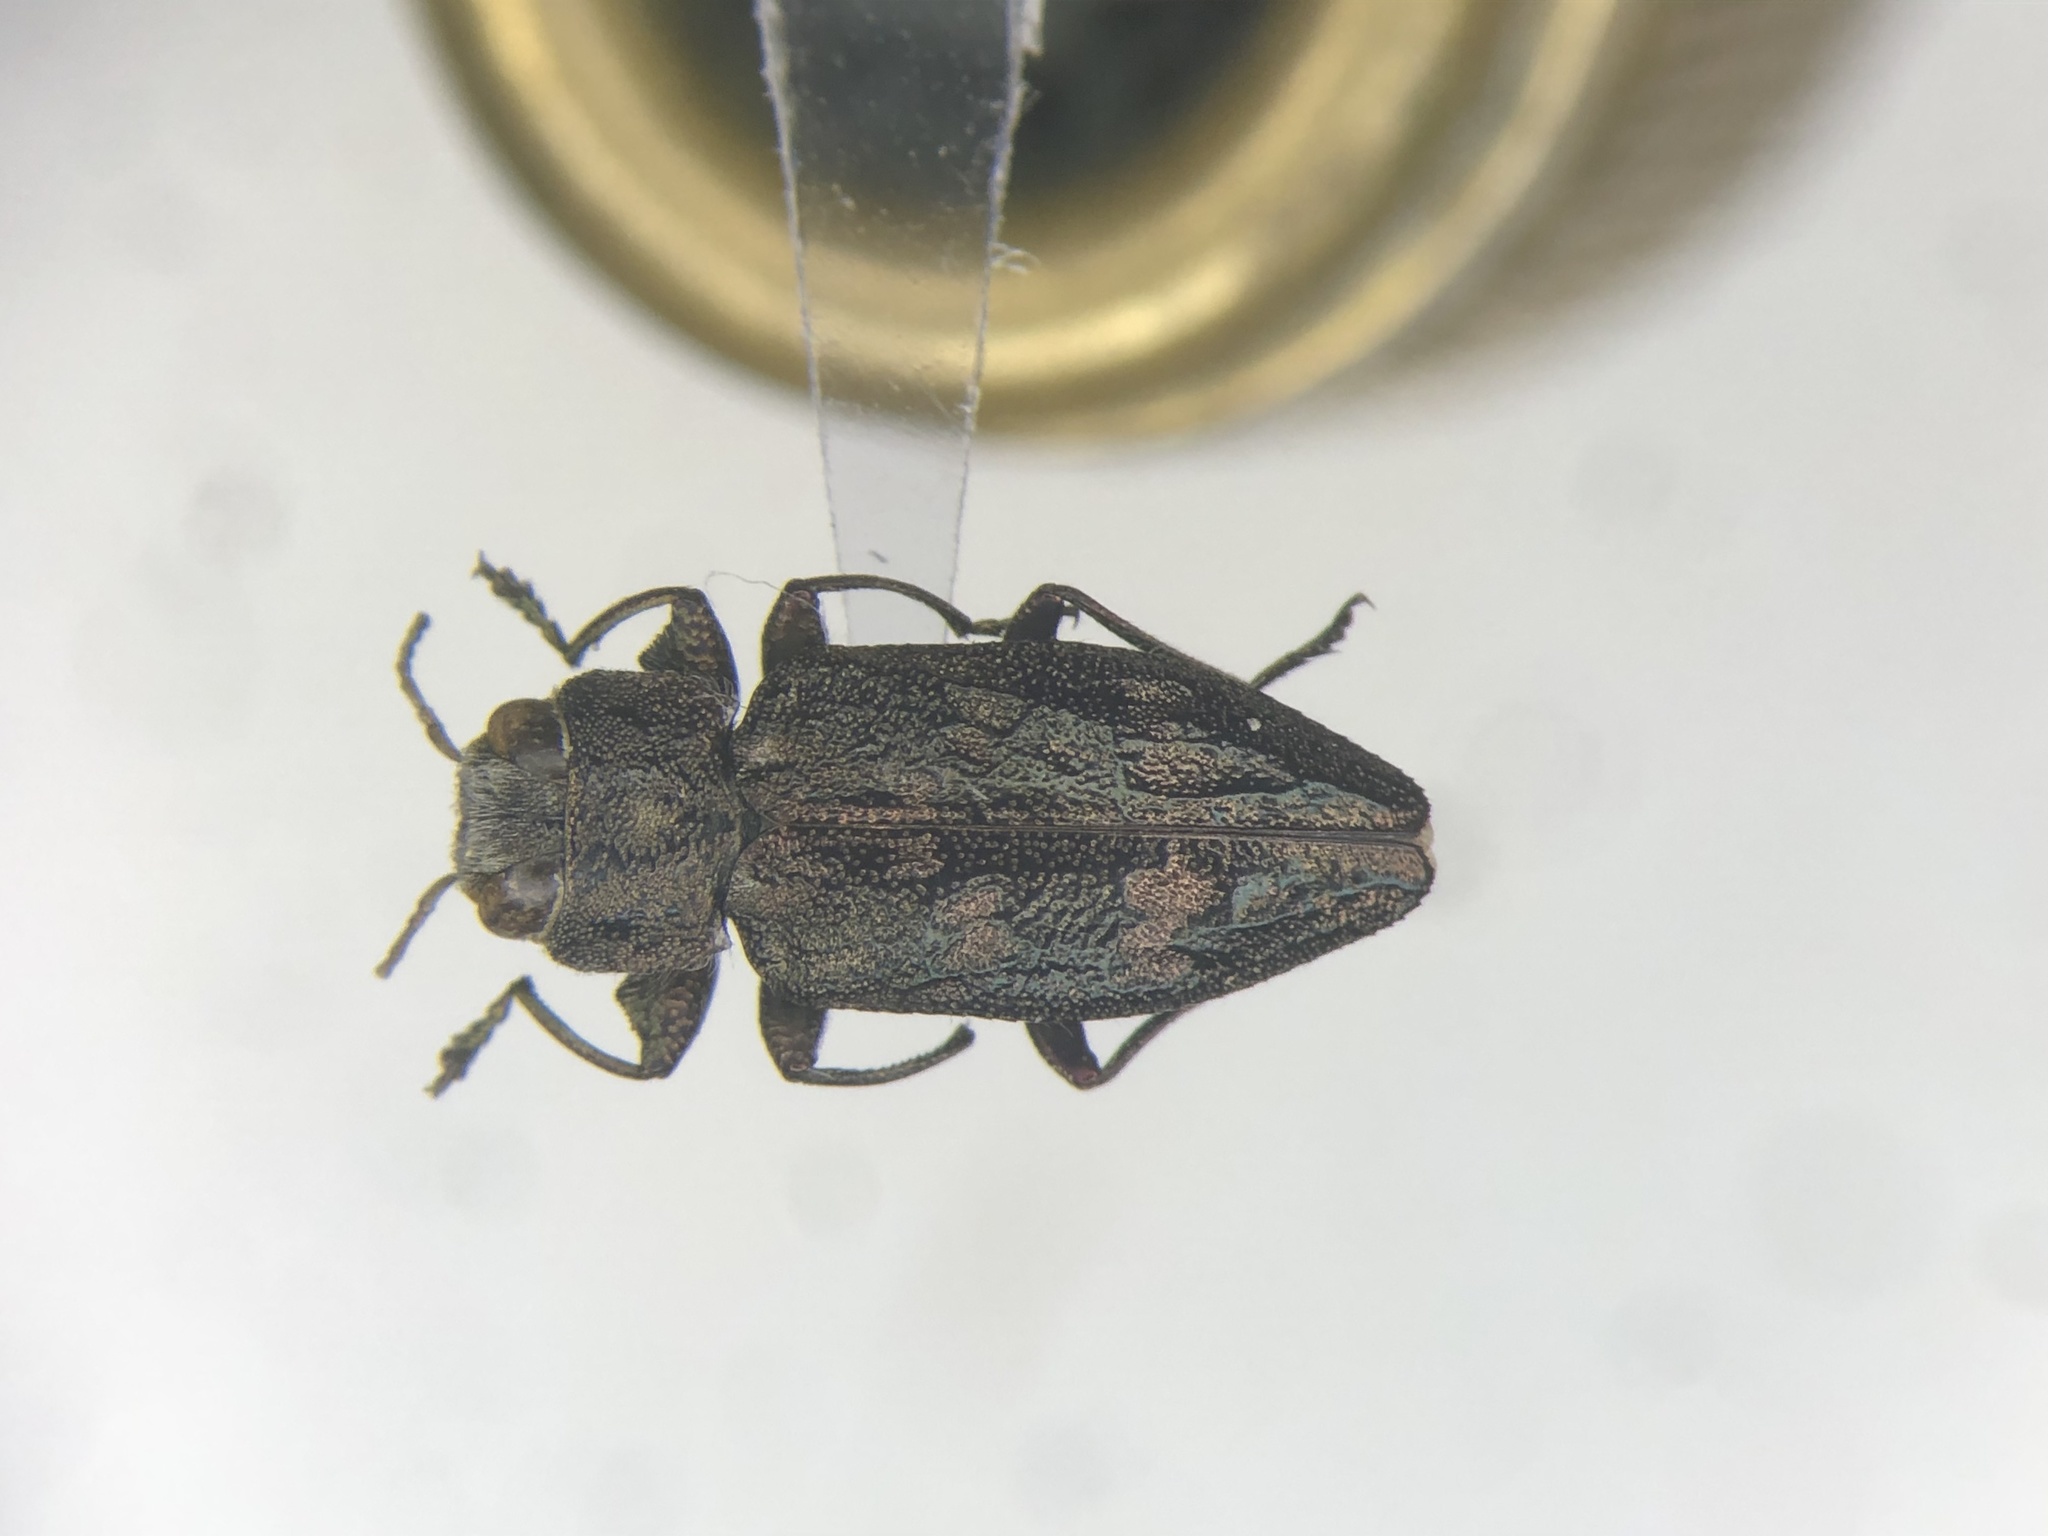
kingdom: Animalia
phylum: Arthropoda
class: Insecta
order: Coleoptera
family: Buprestidae
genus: Chrysobothris
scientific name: Chrysobothris quadriimpressa
